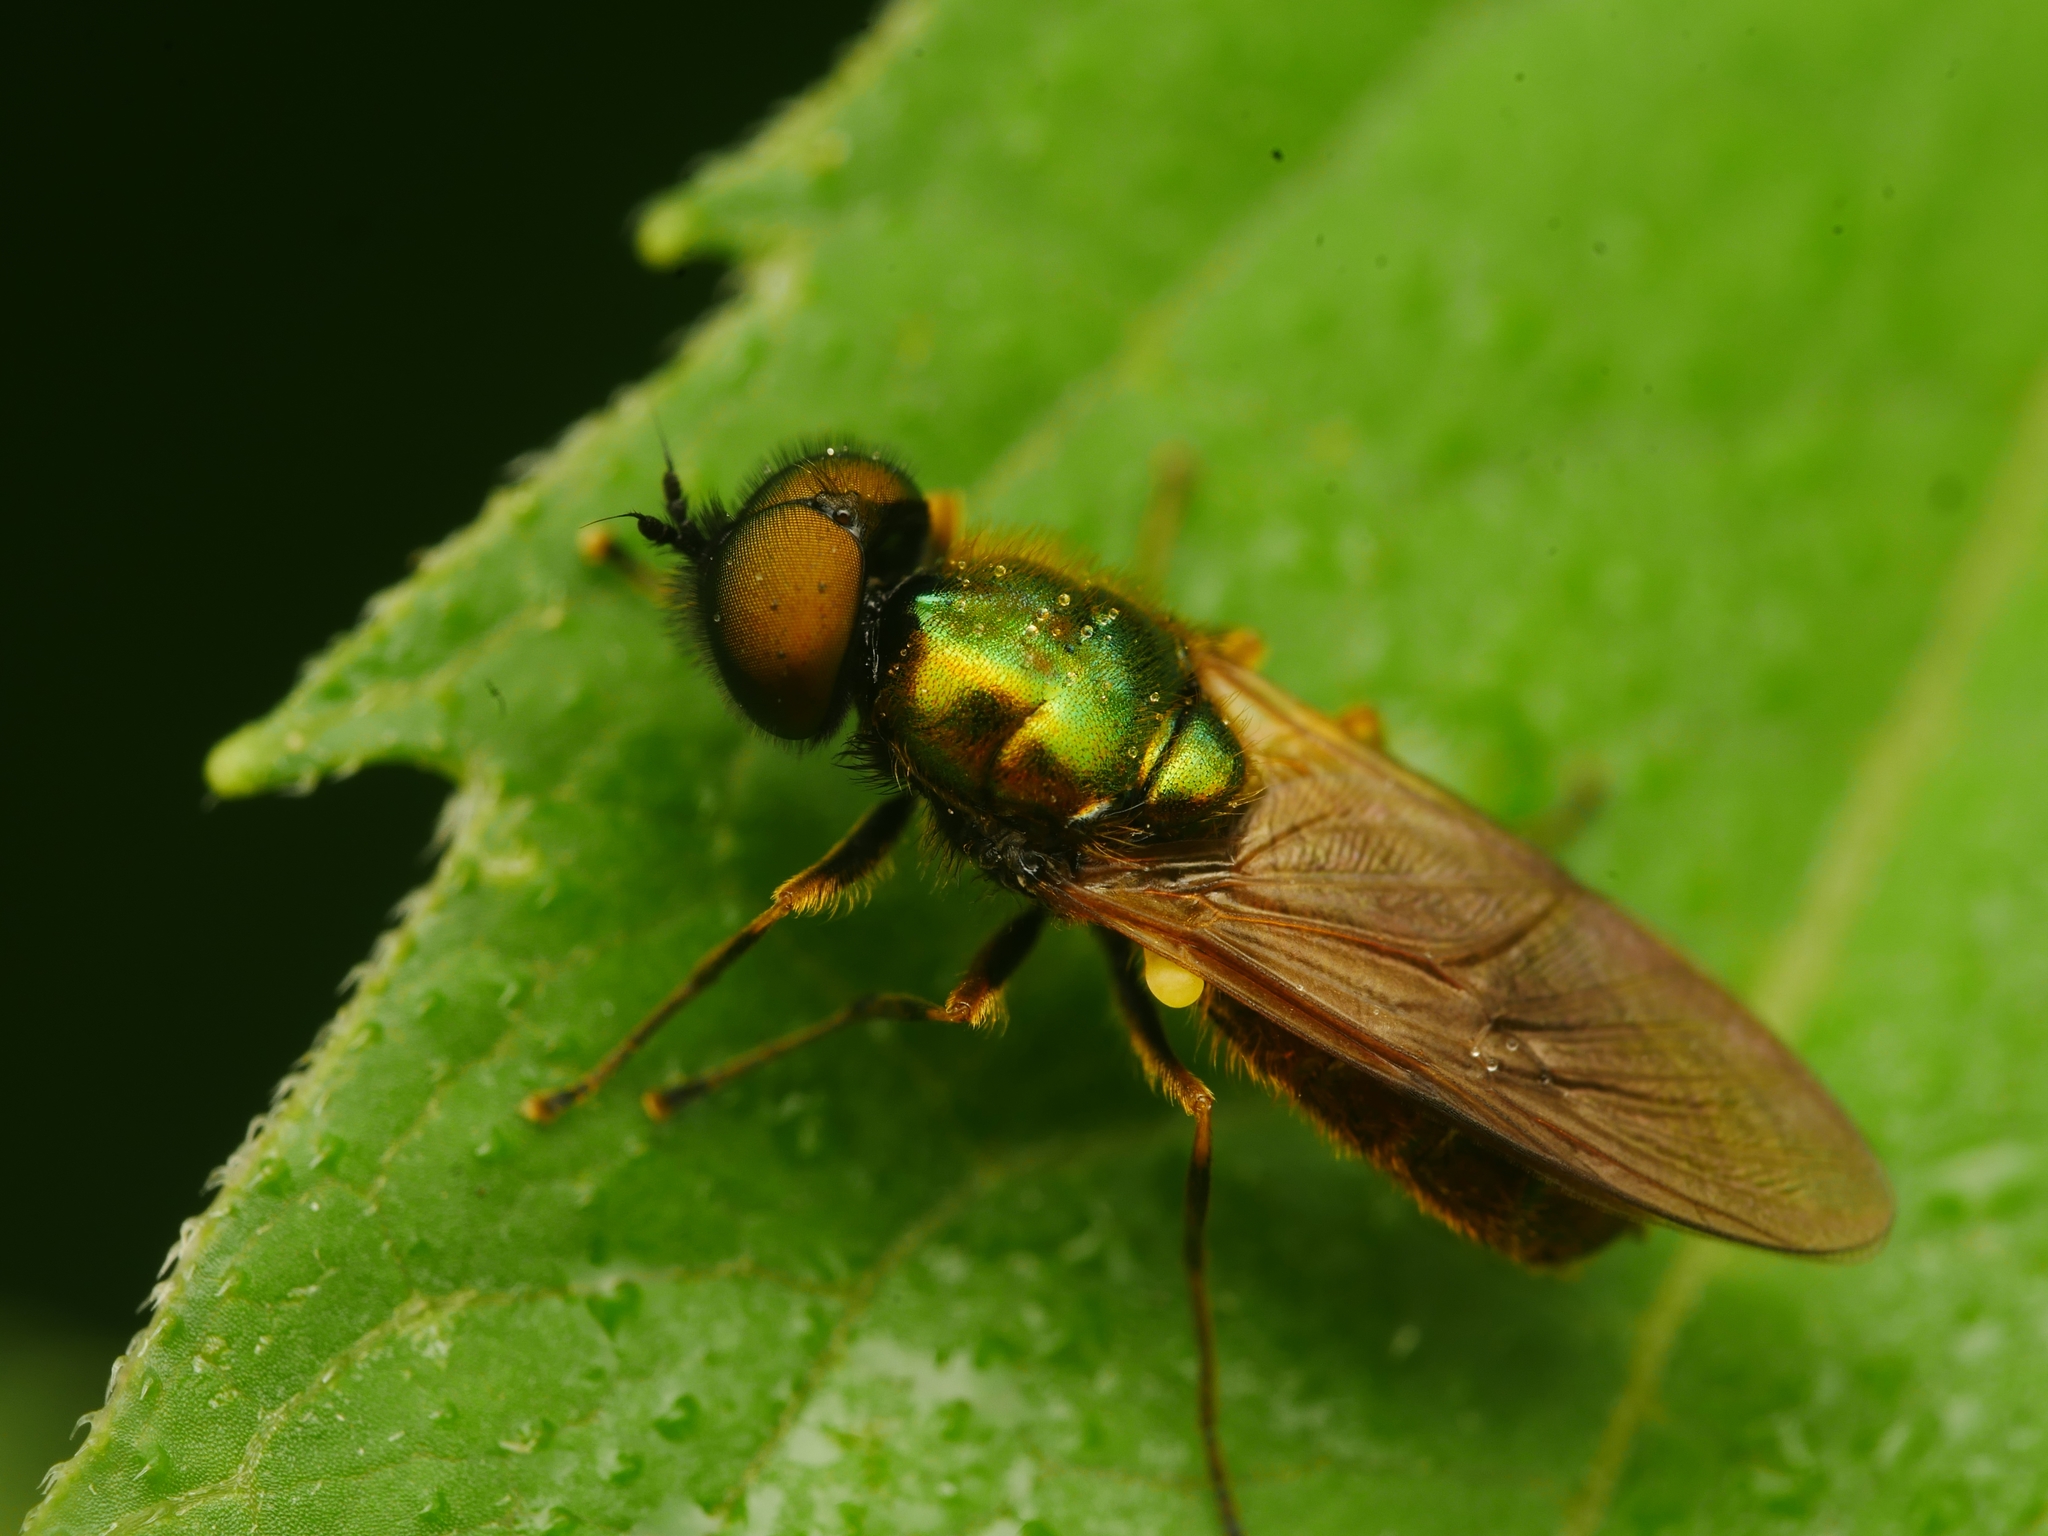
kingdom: Animalia
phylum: Arthropoda
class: Insecta
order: Diptera
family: Stratiomyidae
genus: Chloromyia
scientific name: Chloromyia formosa
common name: Soldier fly
